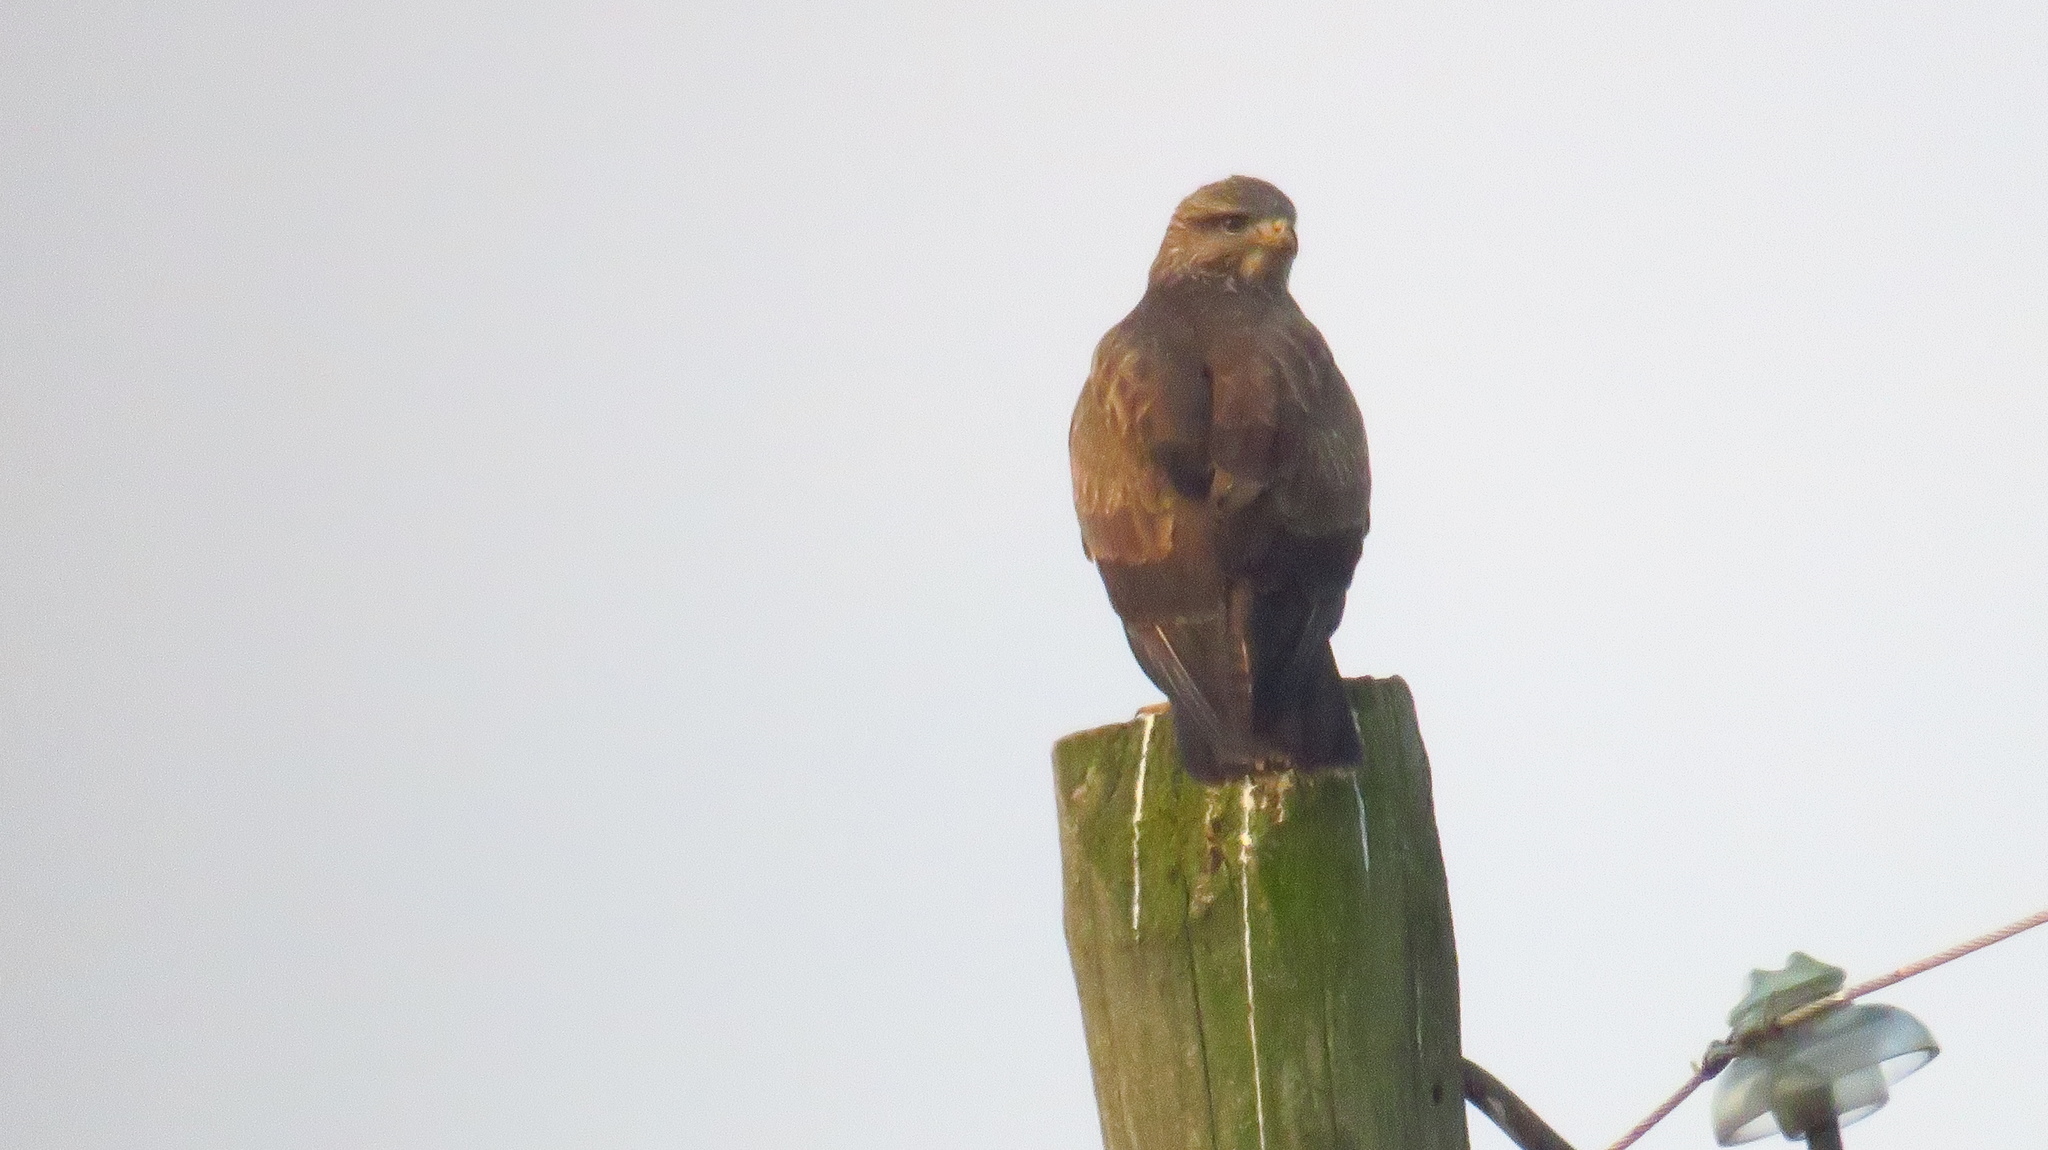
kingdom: Animalia
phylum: Chordata
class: Aves
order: Accipitriformes
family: Accipitridae
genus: Buteo
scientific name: Buteo buteo
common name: Common buzzard
